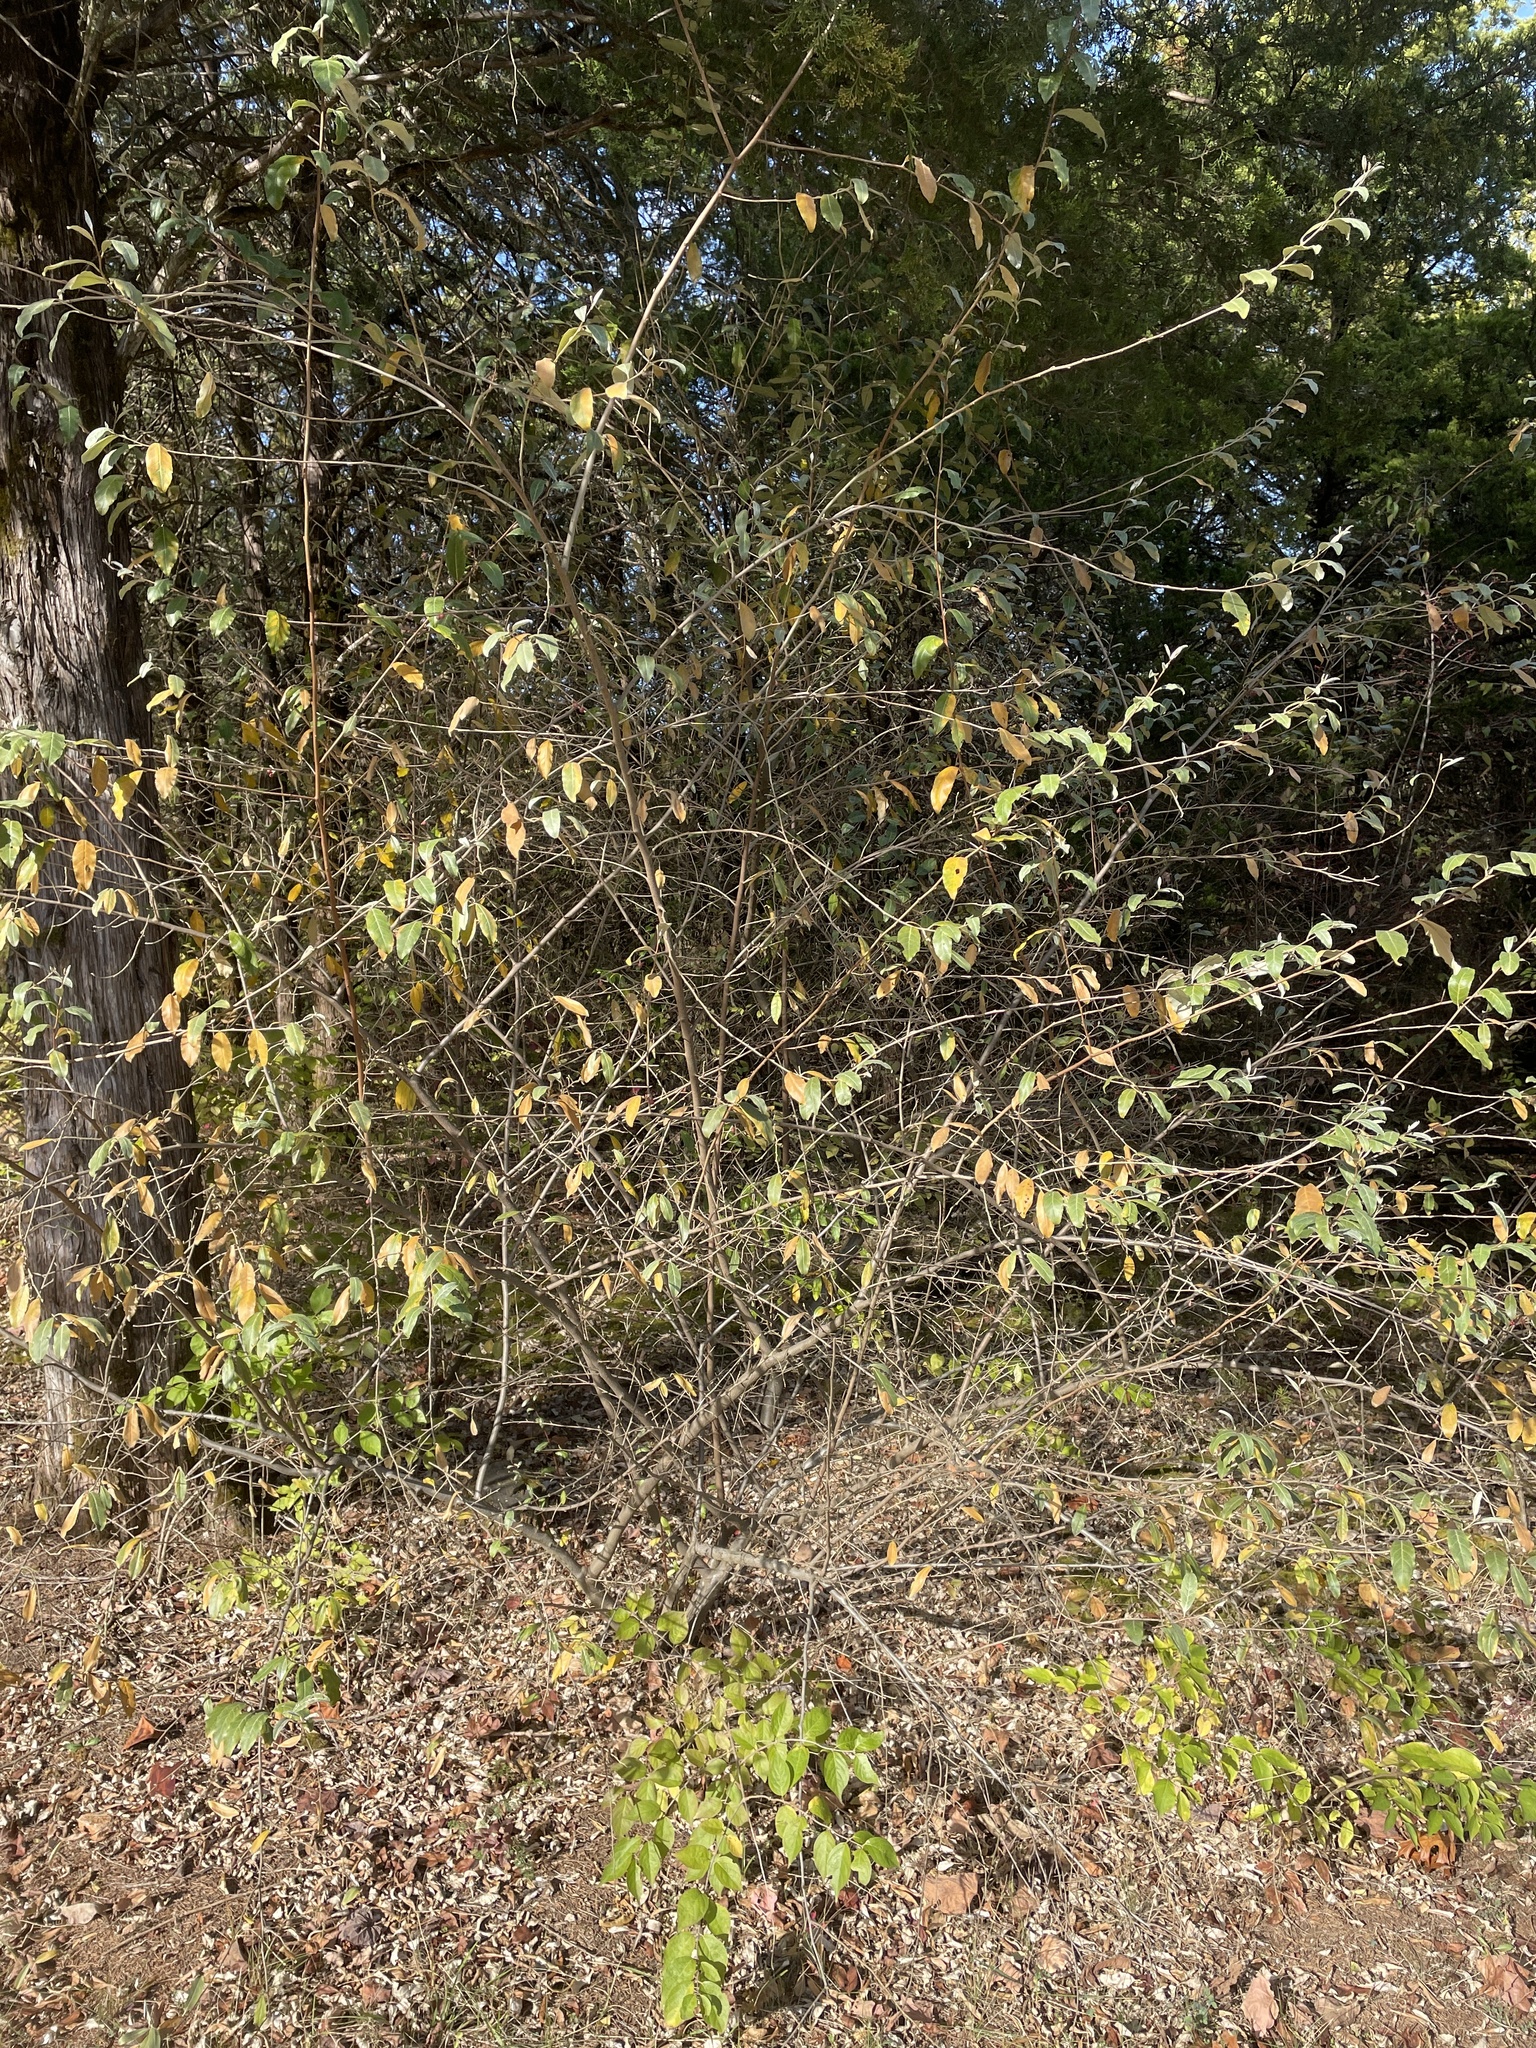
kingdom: Plantae
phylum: Tracheophyta
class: Magnoliopsida
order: Rosales
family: Elaeagnaceae
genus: Elaeagnus
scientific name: Elaeagnus umbellata
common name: Autumn olive
